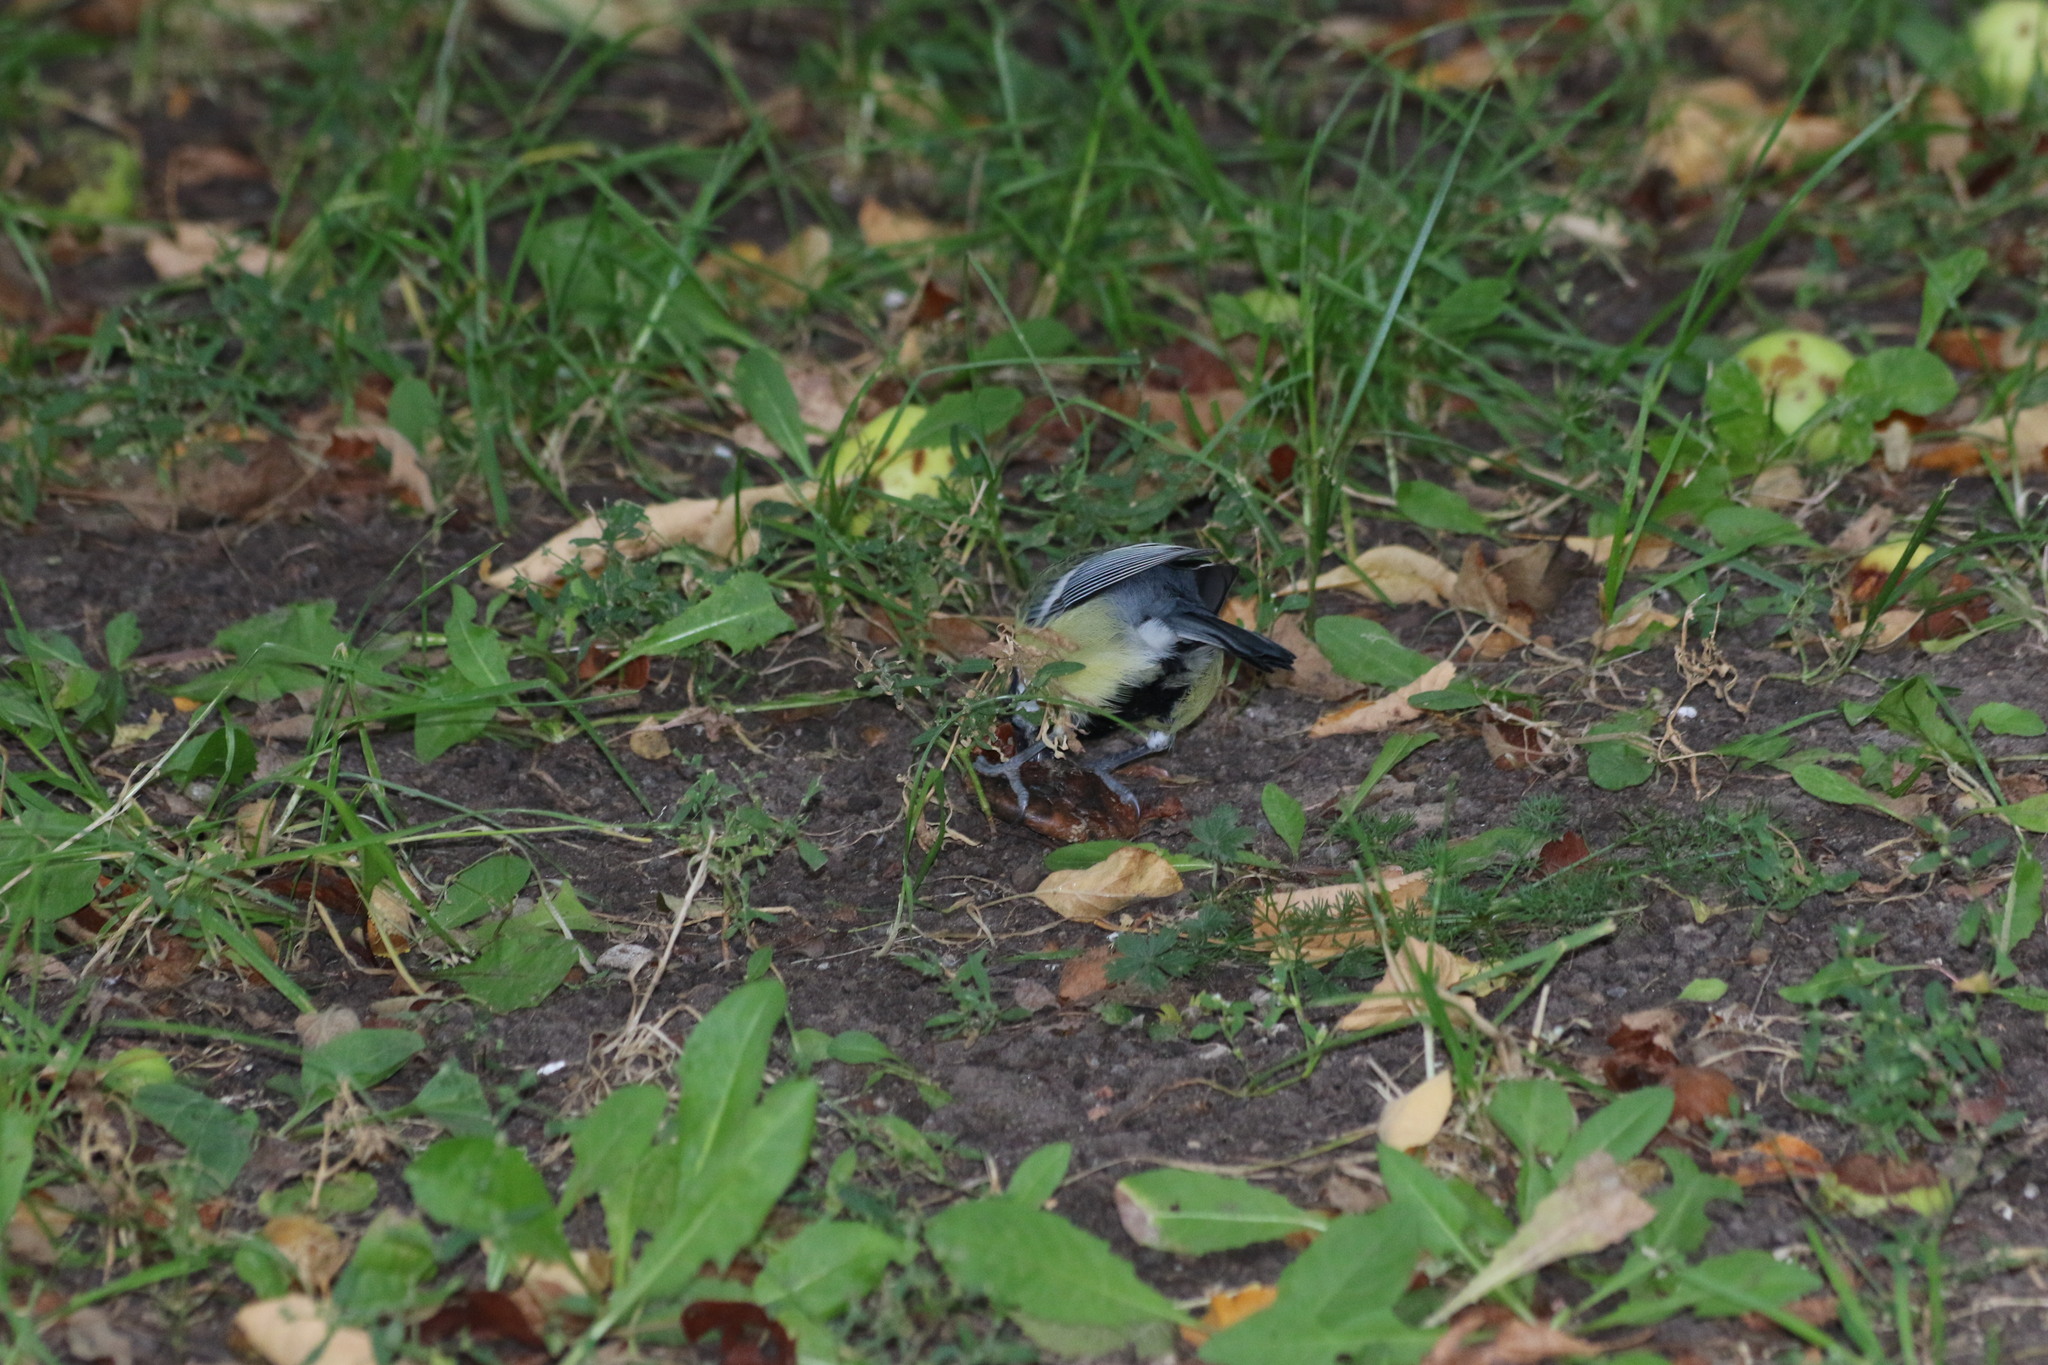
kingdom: Animalia
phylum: Chordata
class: Aves
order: Passeriformes
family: Paridae
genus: Parus
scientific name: Parus major
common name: Great tit
